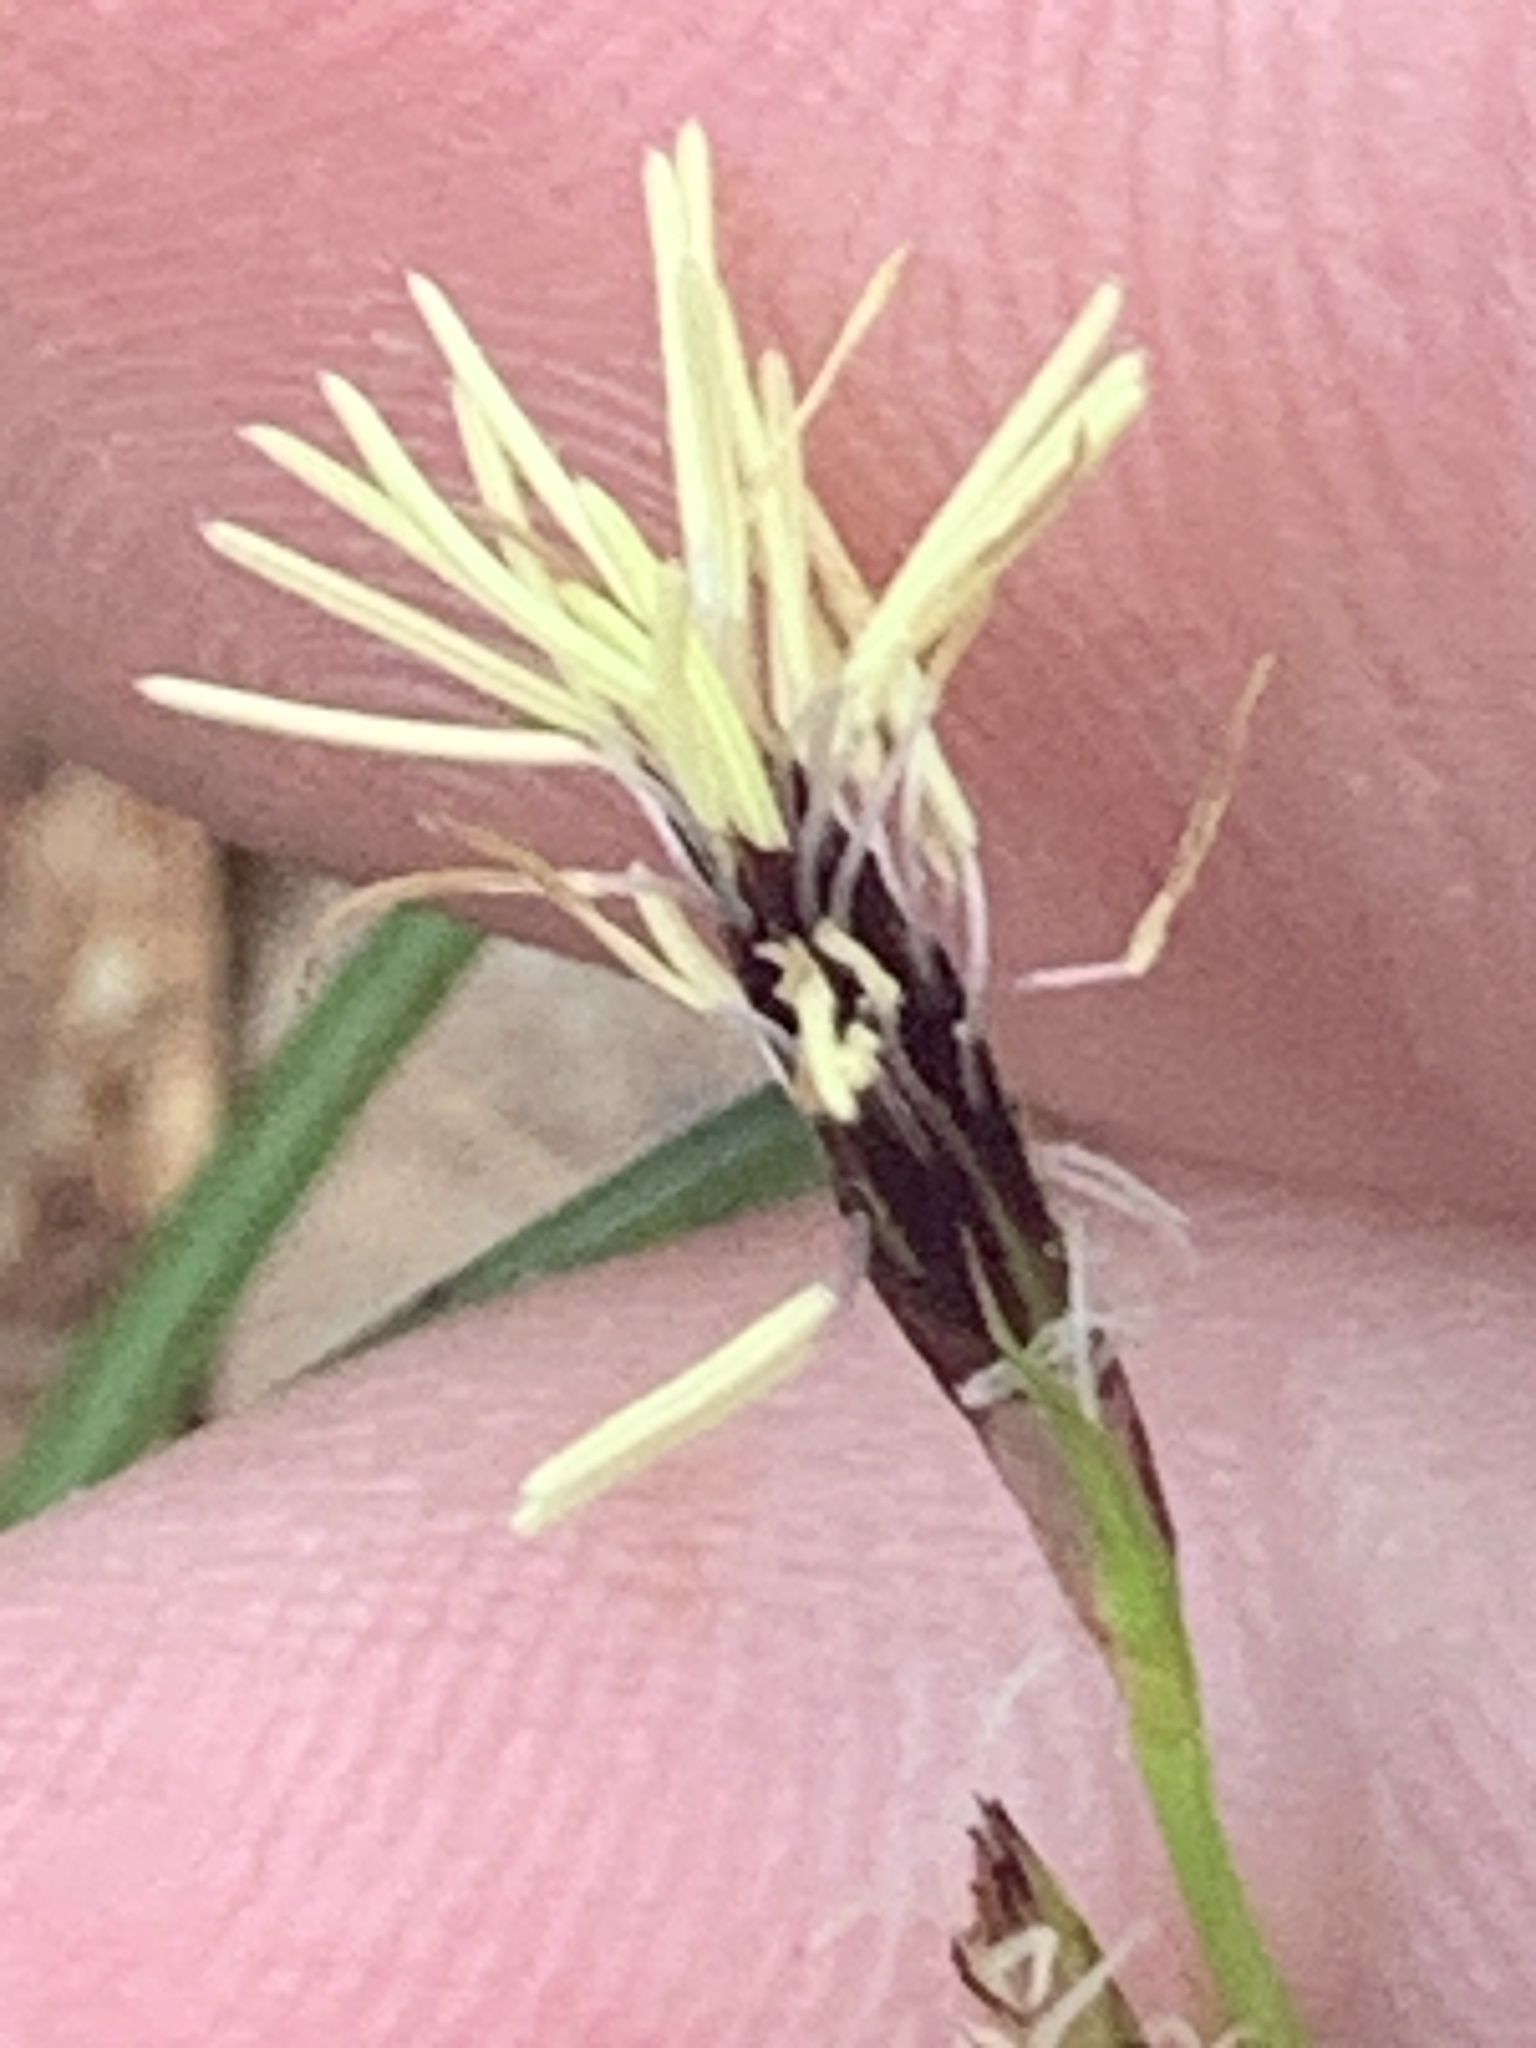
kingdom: Plantae
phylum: Tracheophyta
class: Liliopsida
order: Poales
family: Cyperaceae
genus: Carex
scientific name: Carex pedunculata
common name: Pedunculate sedge
